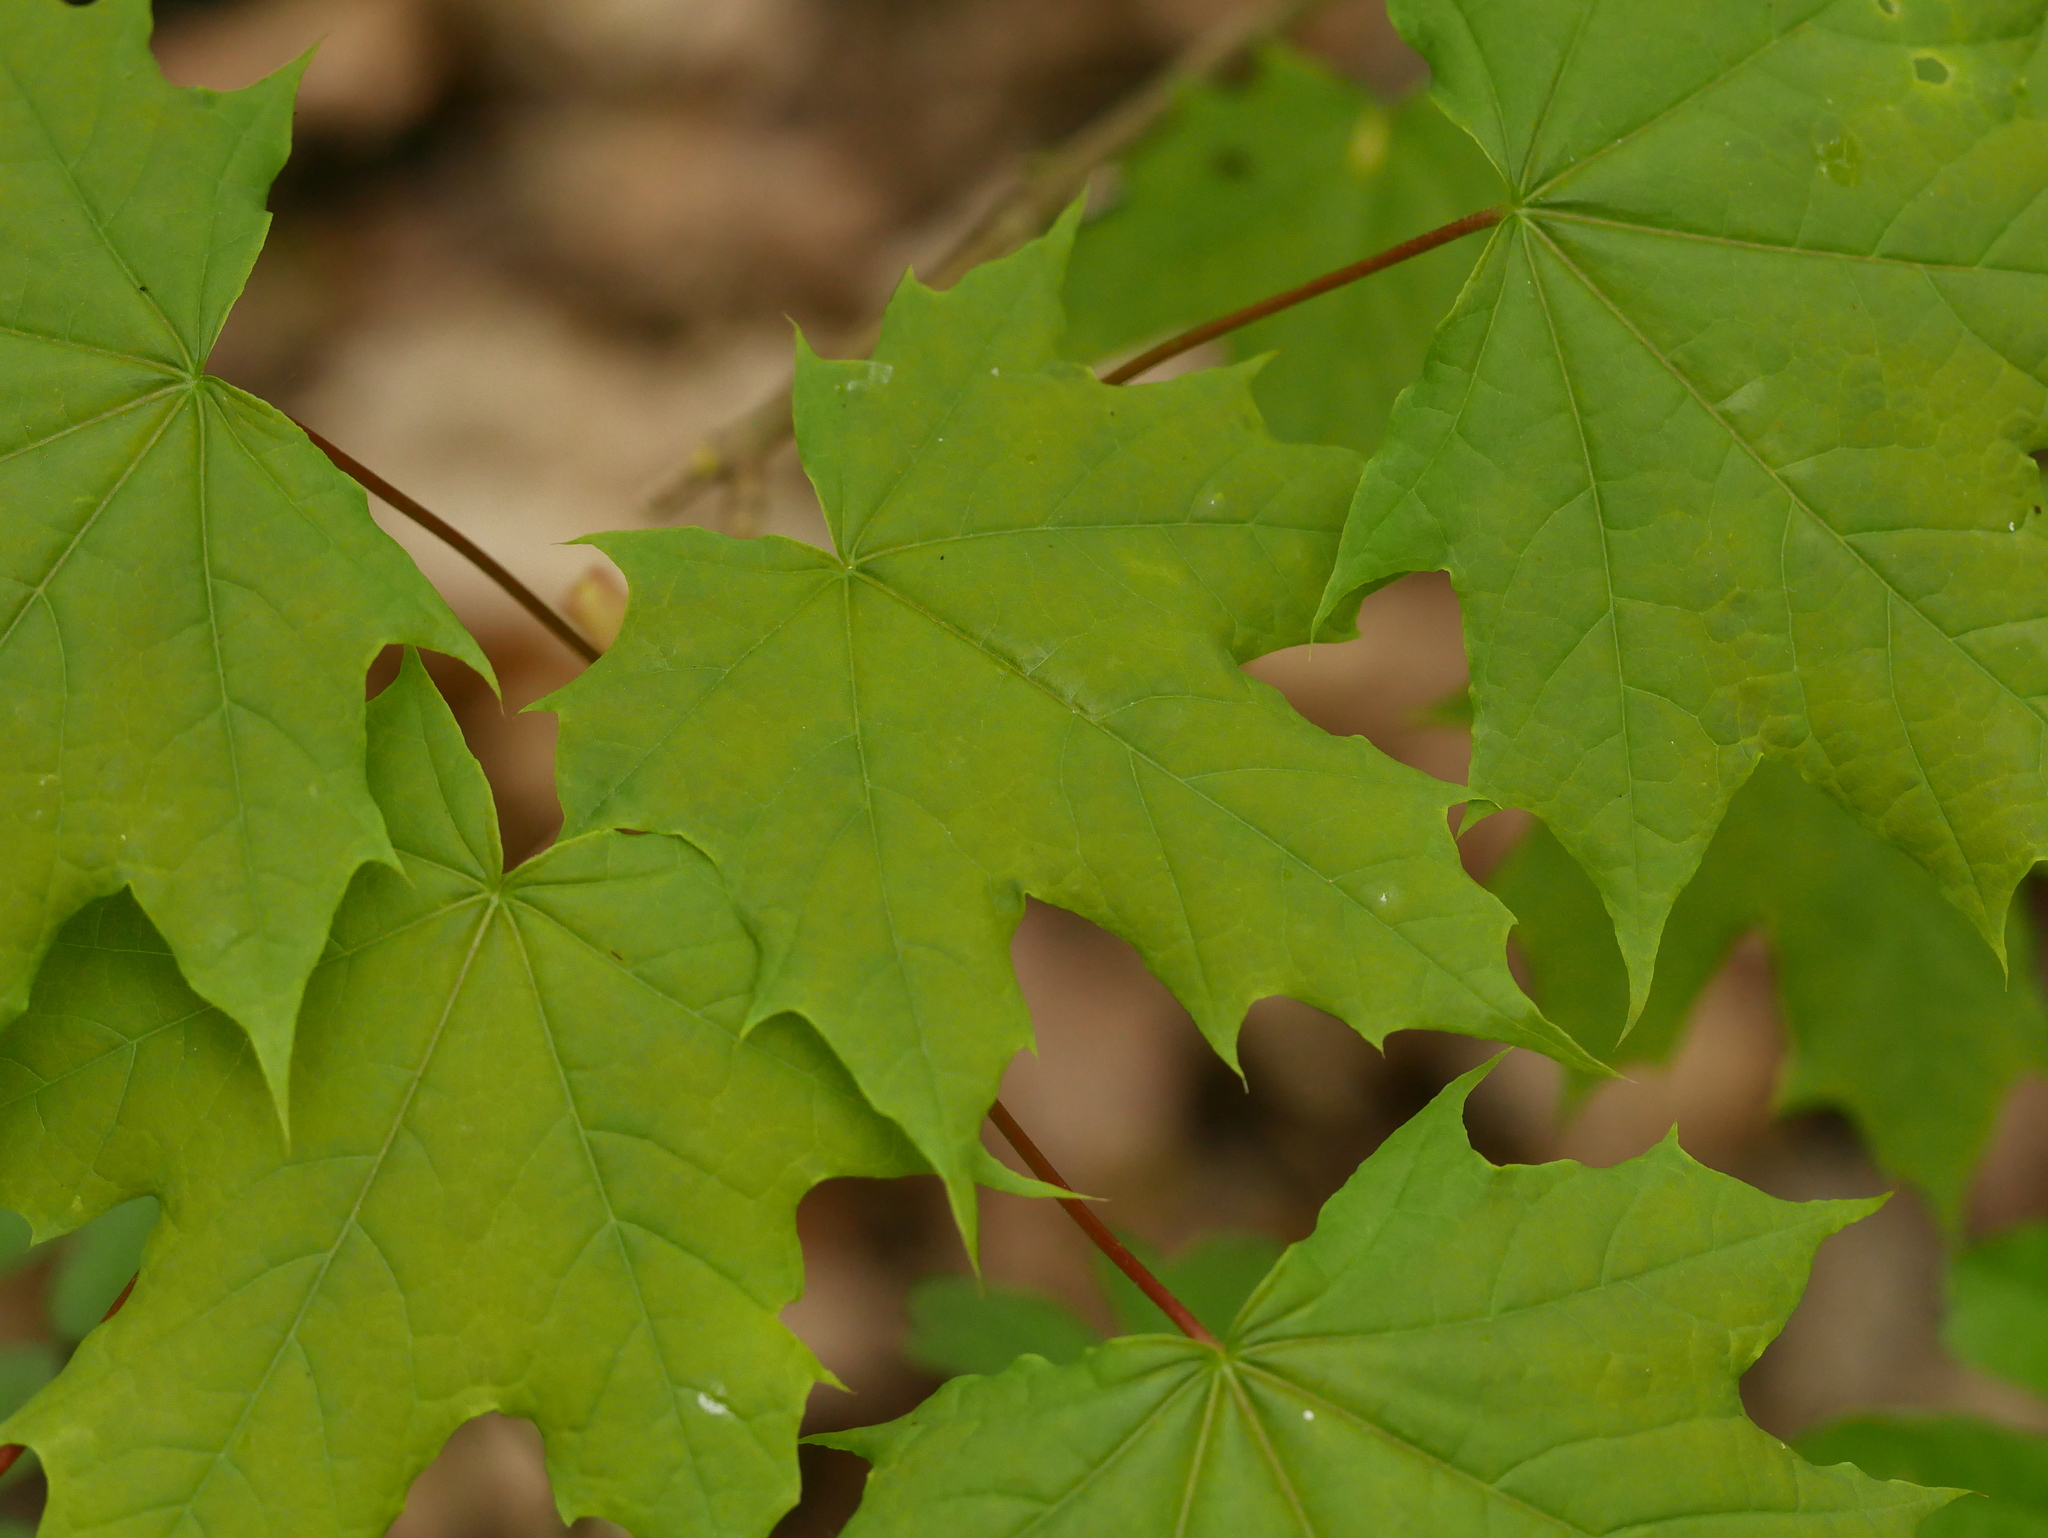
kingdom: Plantae
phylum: Tracheophyta
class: Magnoliopsida
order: Sapindales
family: Sapindaceae
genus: Acer
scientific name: Acer platanoides
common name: Norway maple
